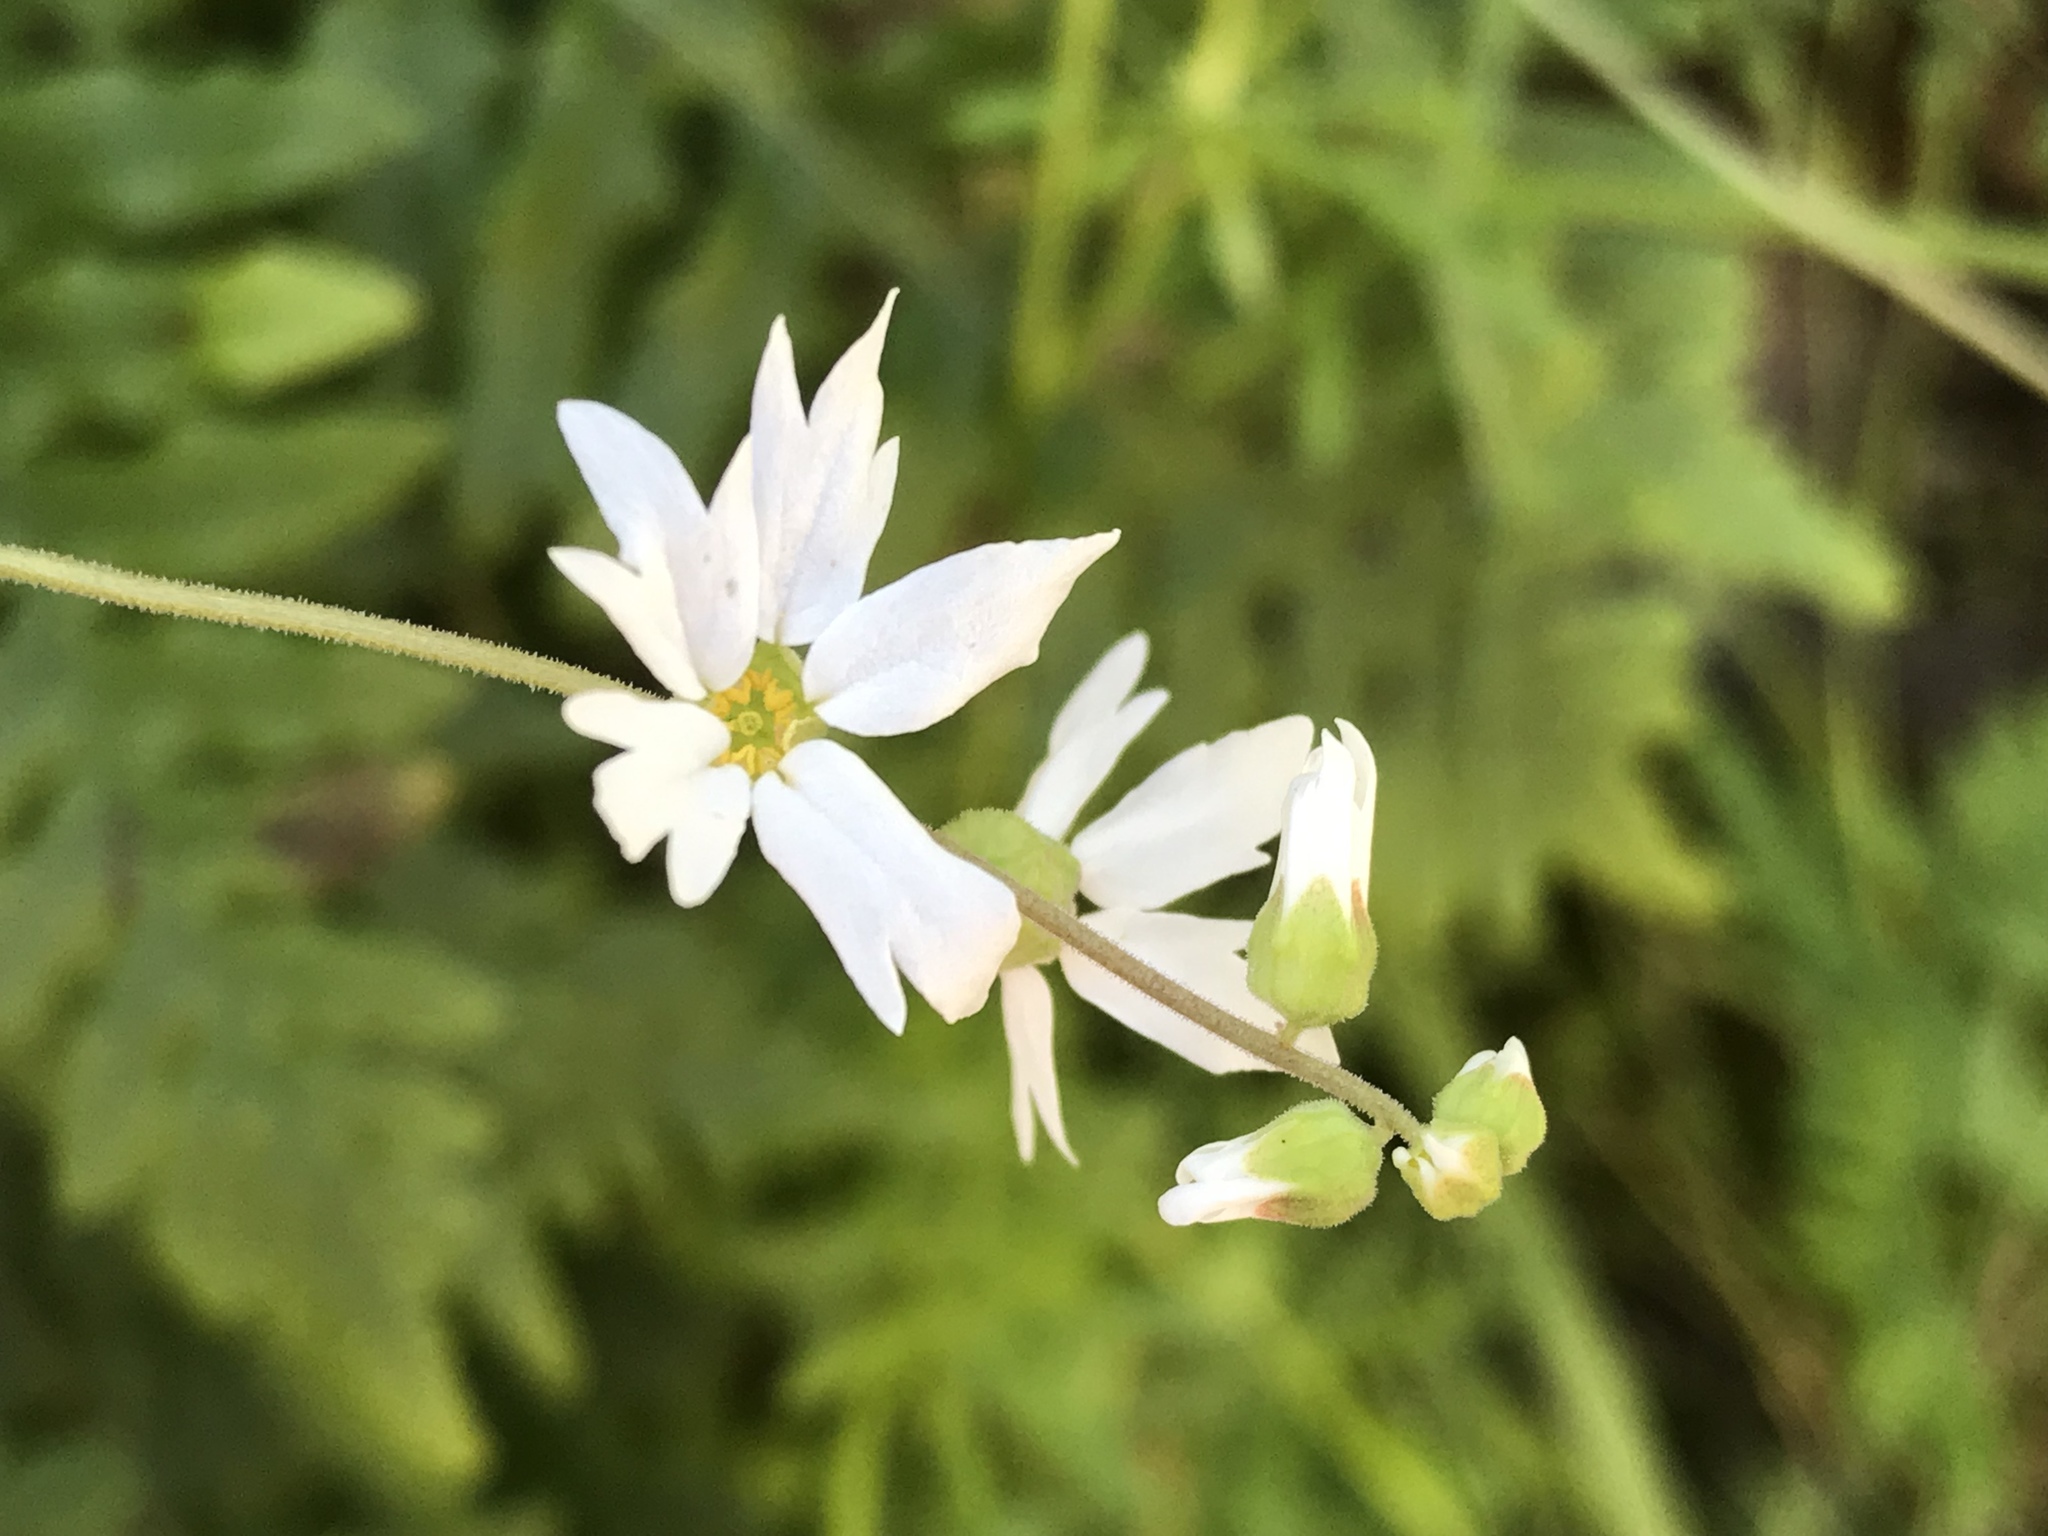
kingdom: Plantae
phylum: Tracheophyta
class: Magnoliopsida
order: Saxifragales
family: Saxifragaceae
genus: Lithophragma
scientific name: Lithophragma heterophyllum
